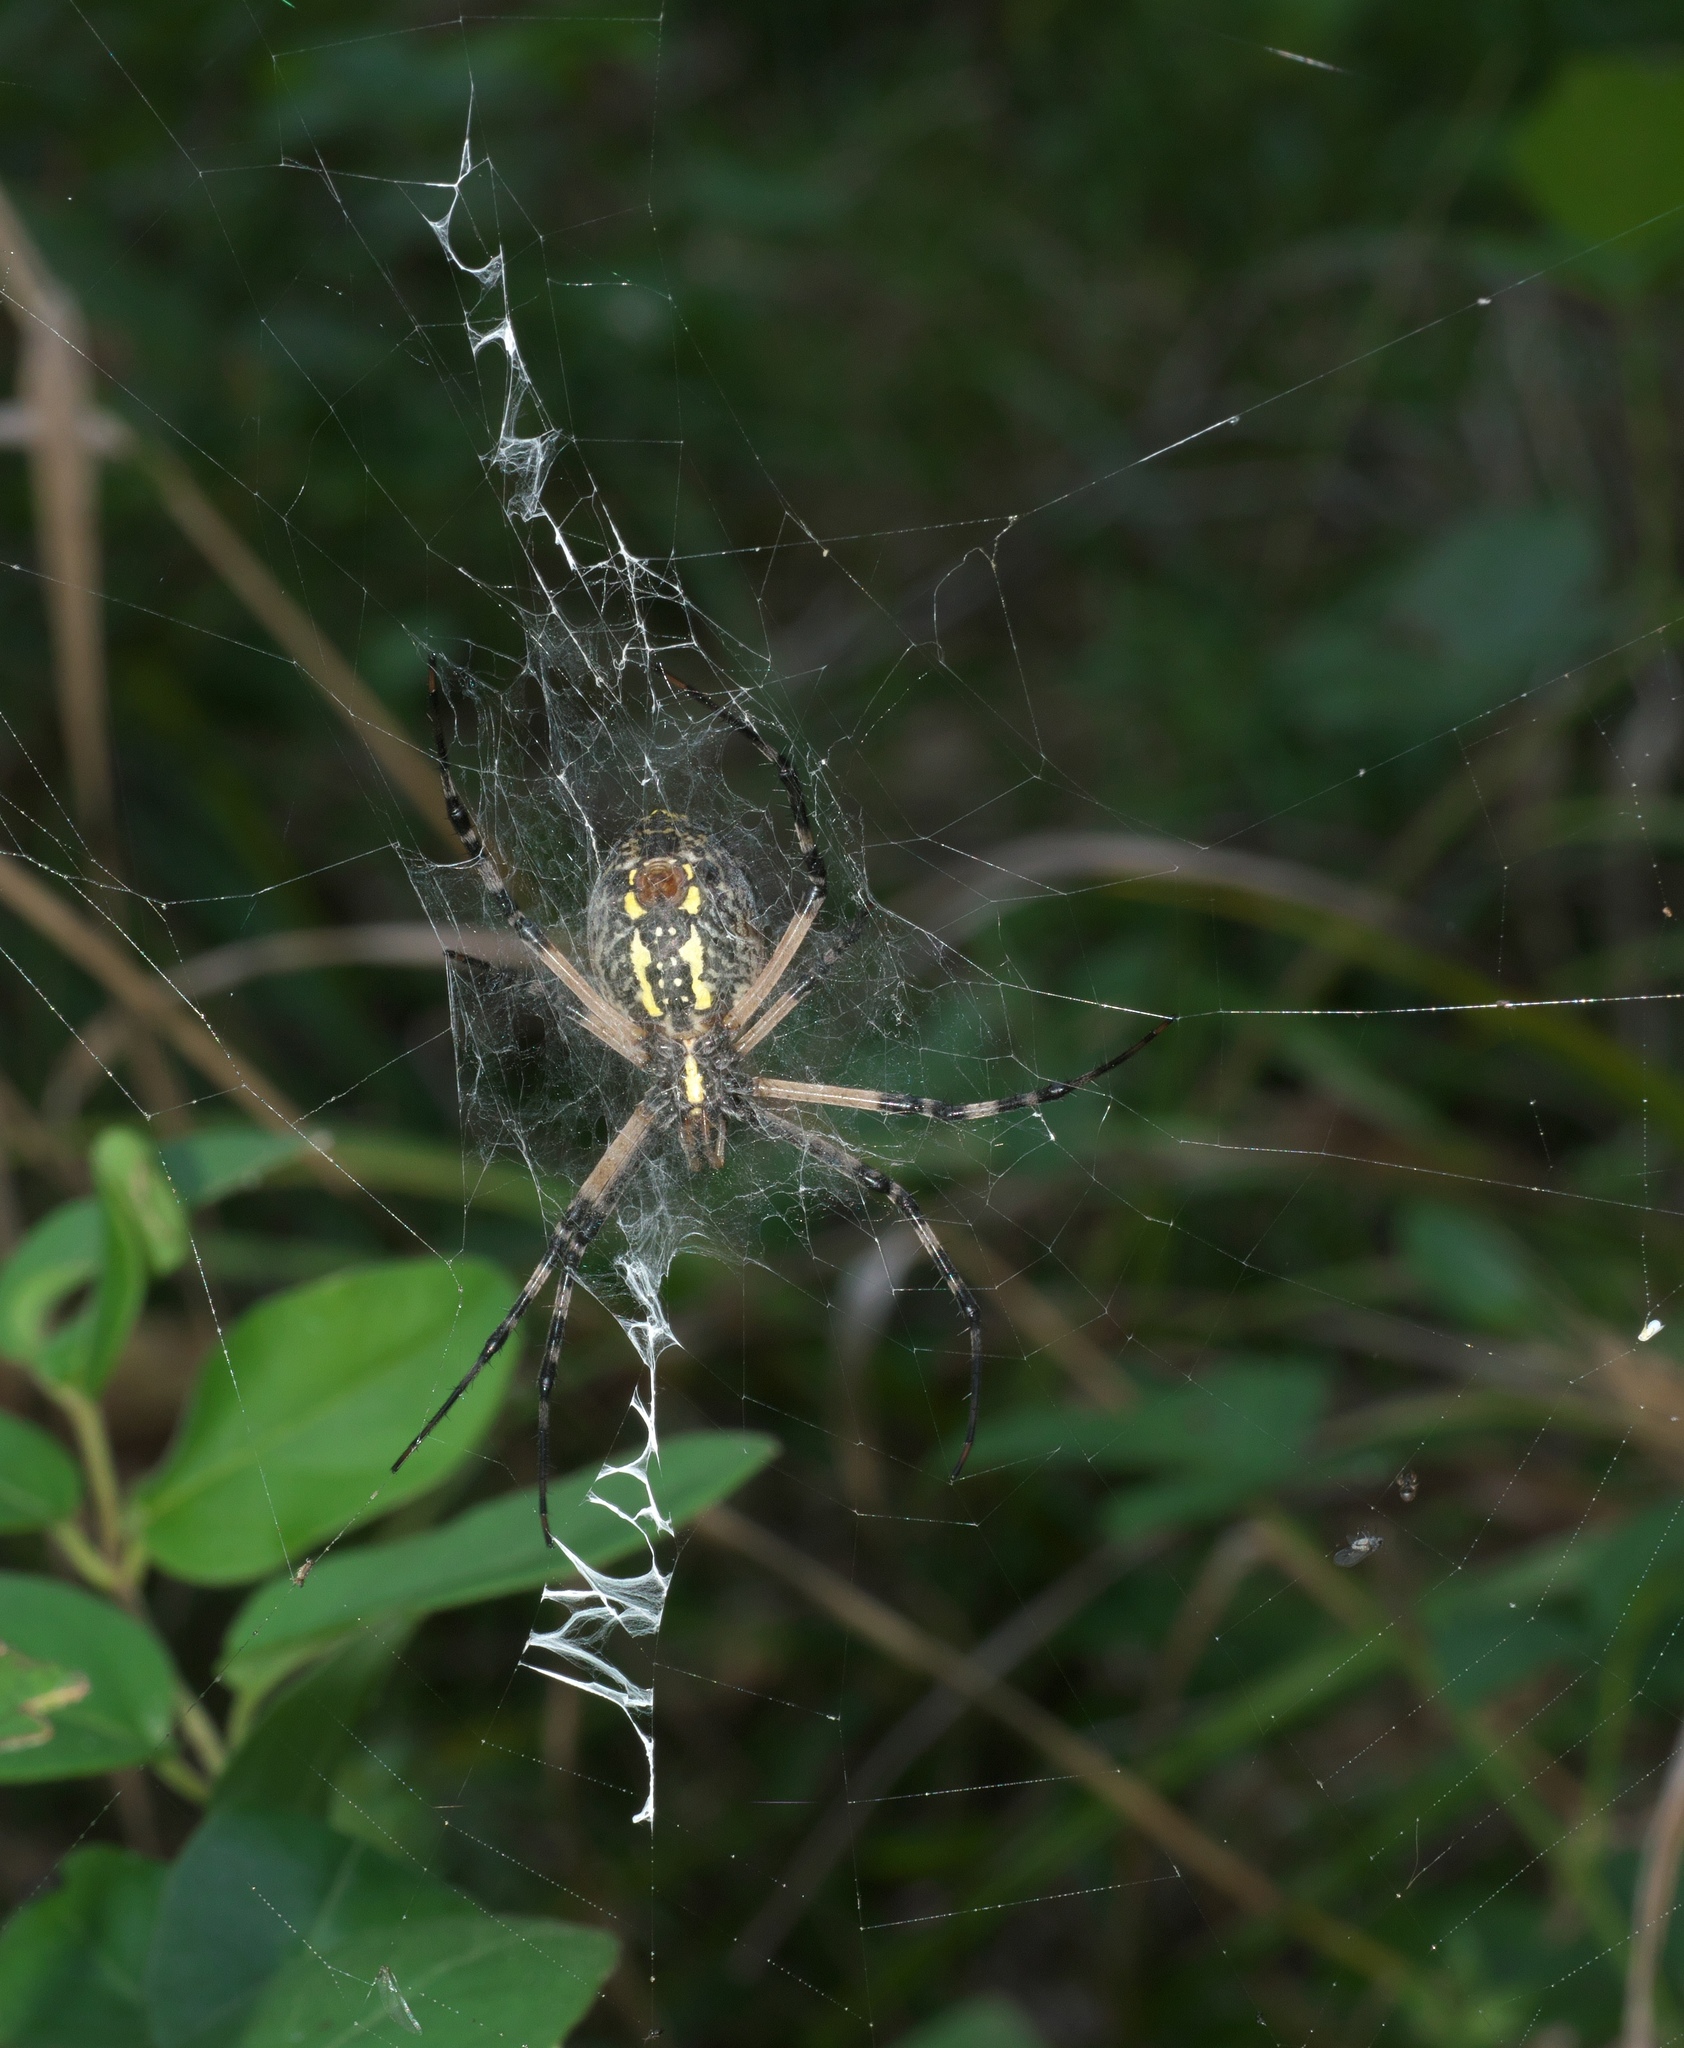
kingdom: Animalia
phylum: Arthropoda
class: Arachnida
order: Araneae
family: Araneidae
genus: Argiope
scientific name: Argiope aurantia
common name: Orb weavers
